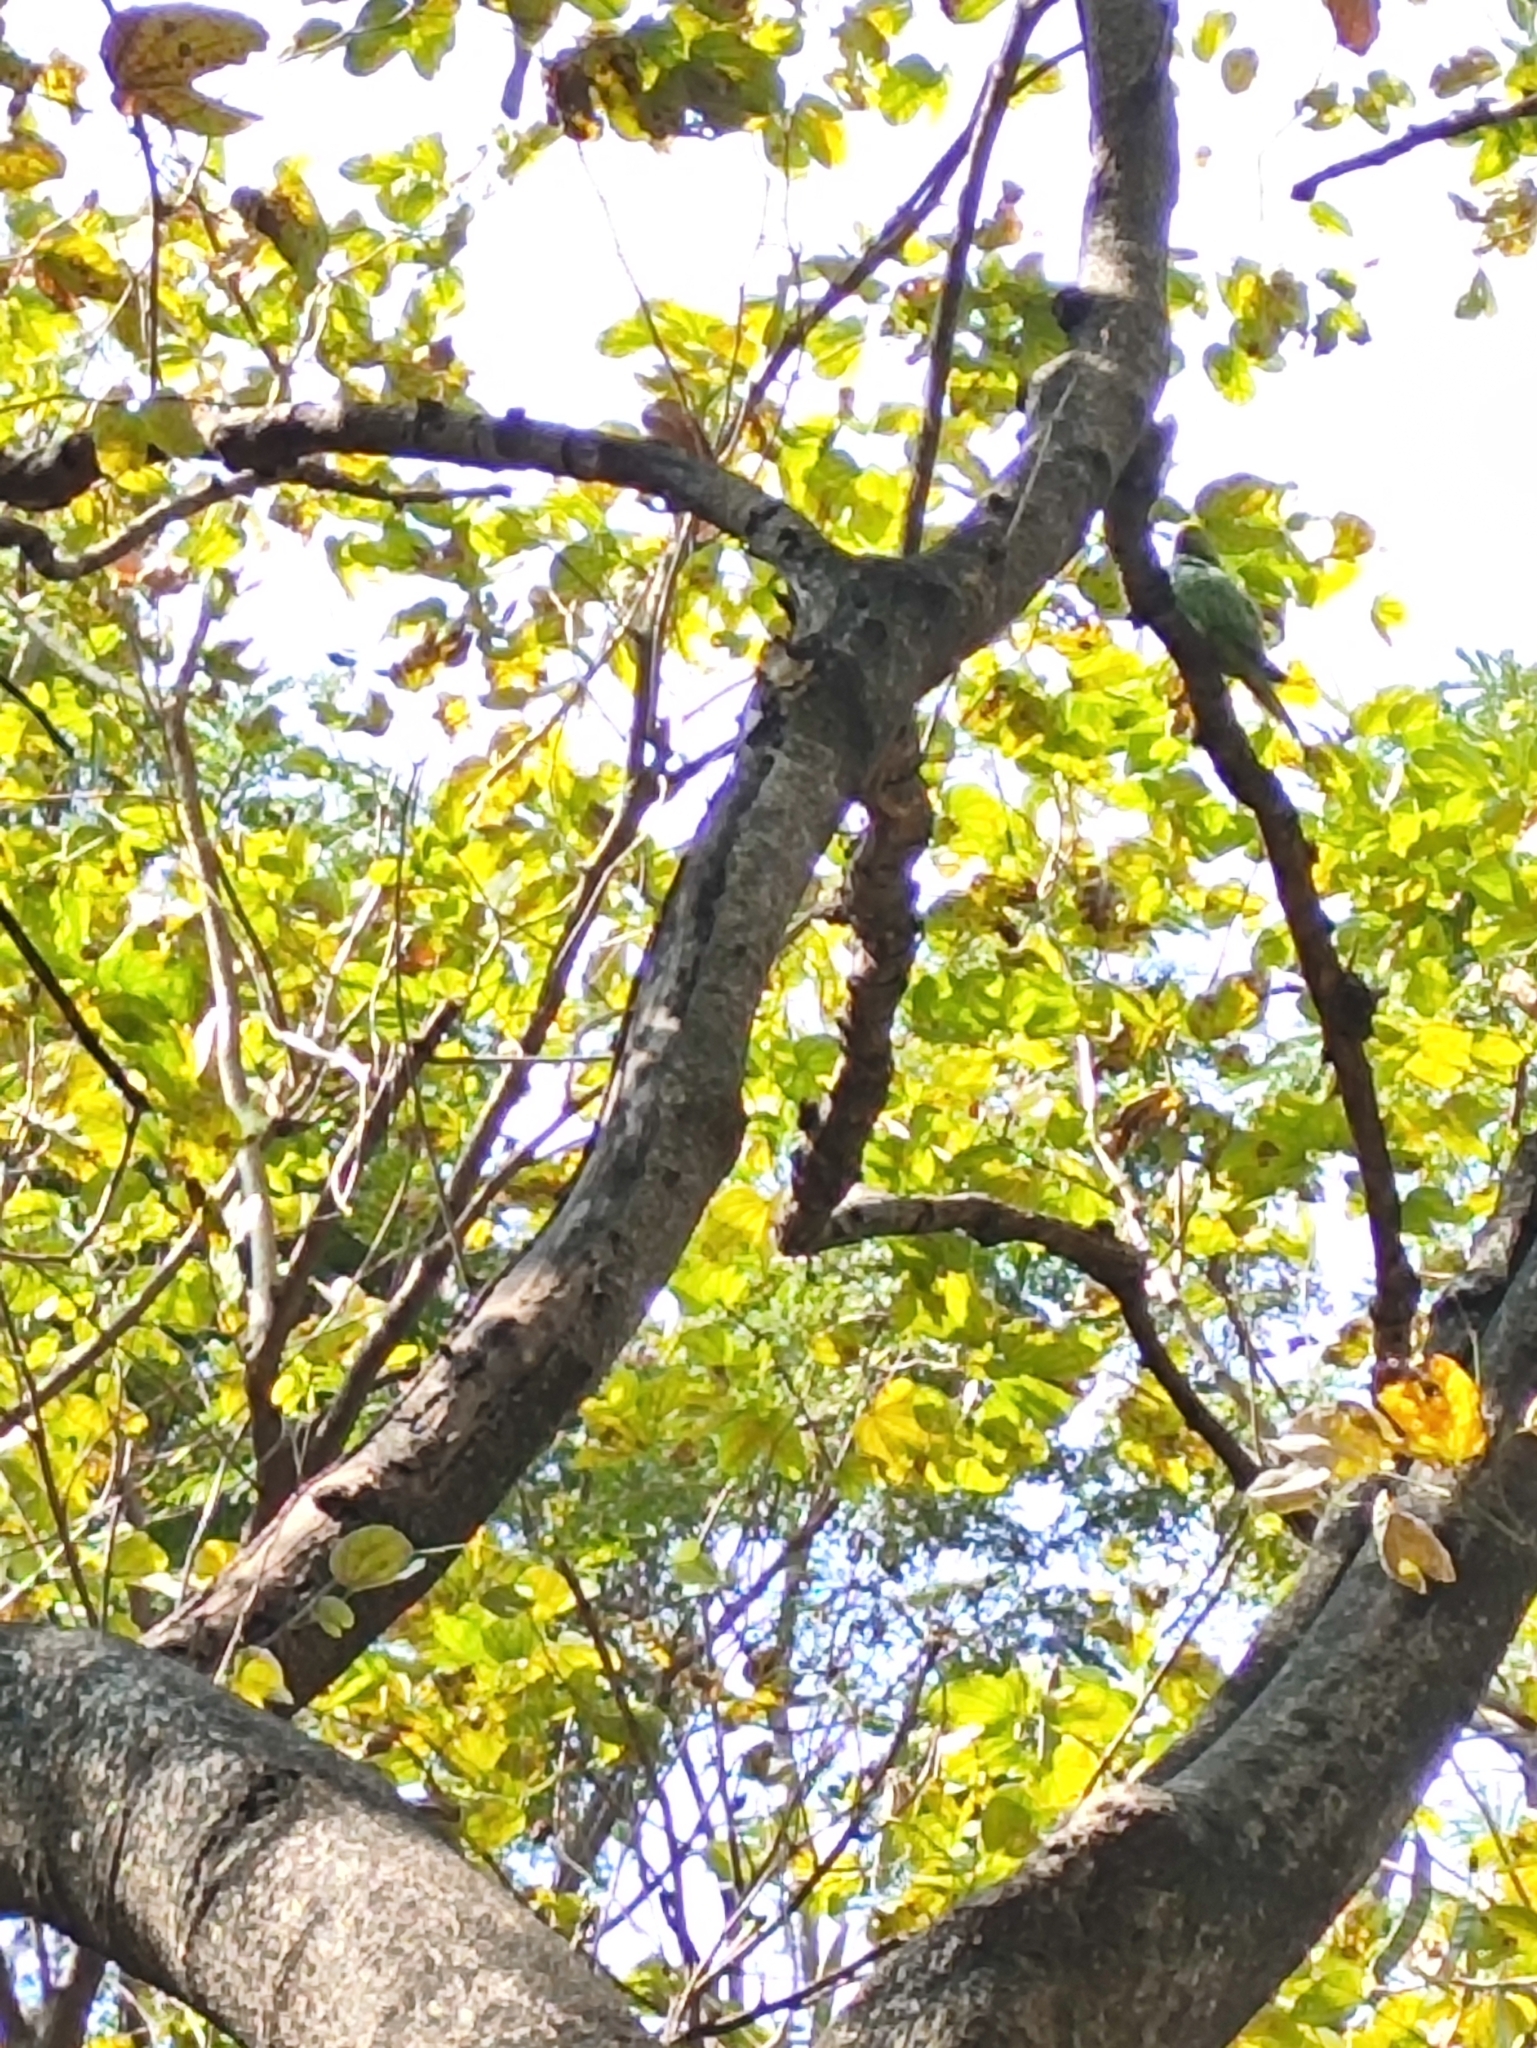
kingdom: Animalia
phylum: Chordata
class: Aves
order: Psittaciformes
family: Psittacidae
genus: Psittacula
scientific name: Psittacula krameri
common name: Rose-ringed parakeet
